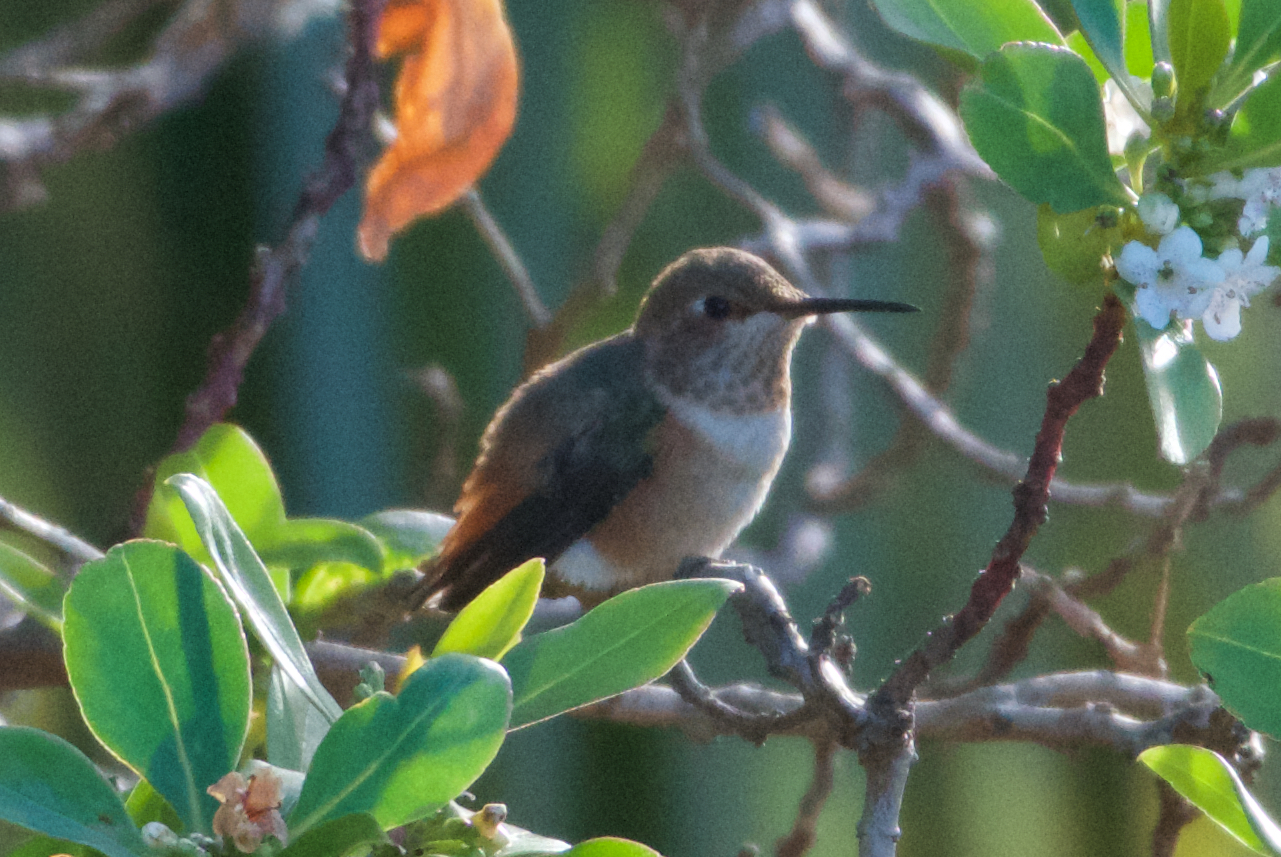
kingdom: Animalia
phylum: Chordata
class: Aves
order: Apodiformes
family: Trochilidae
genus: Selasphorus
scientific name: Selasphorus sasin
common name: Allen's hummingbird
